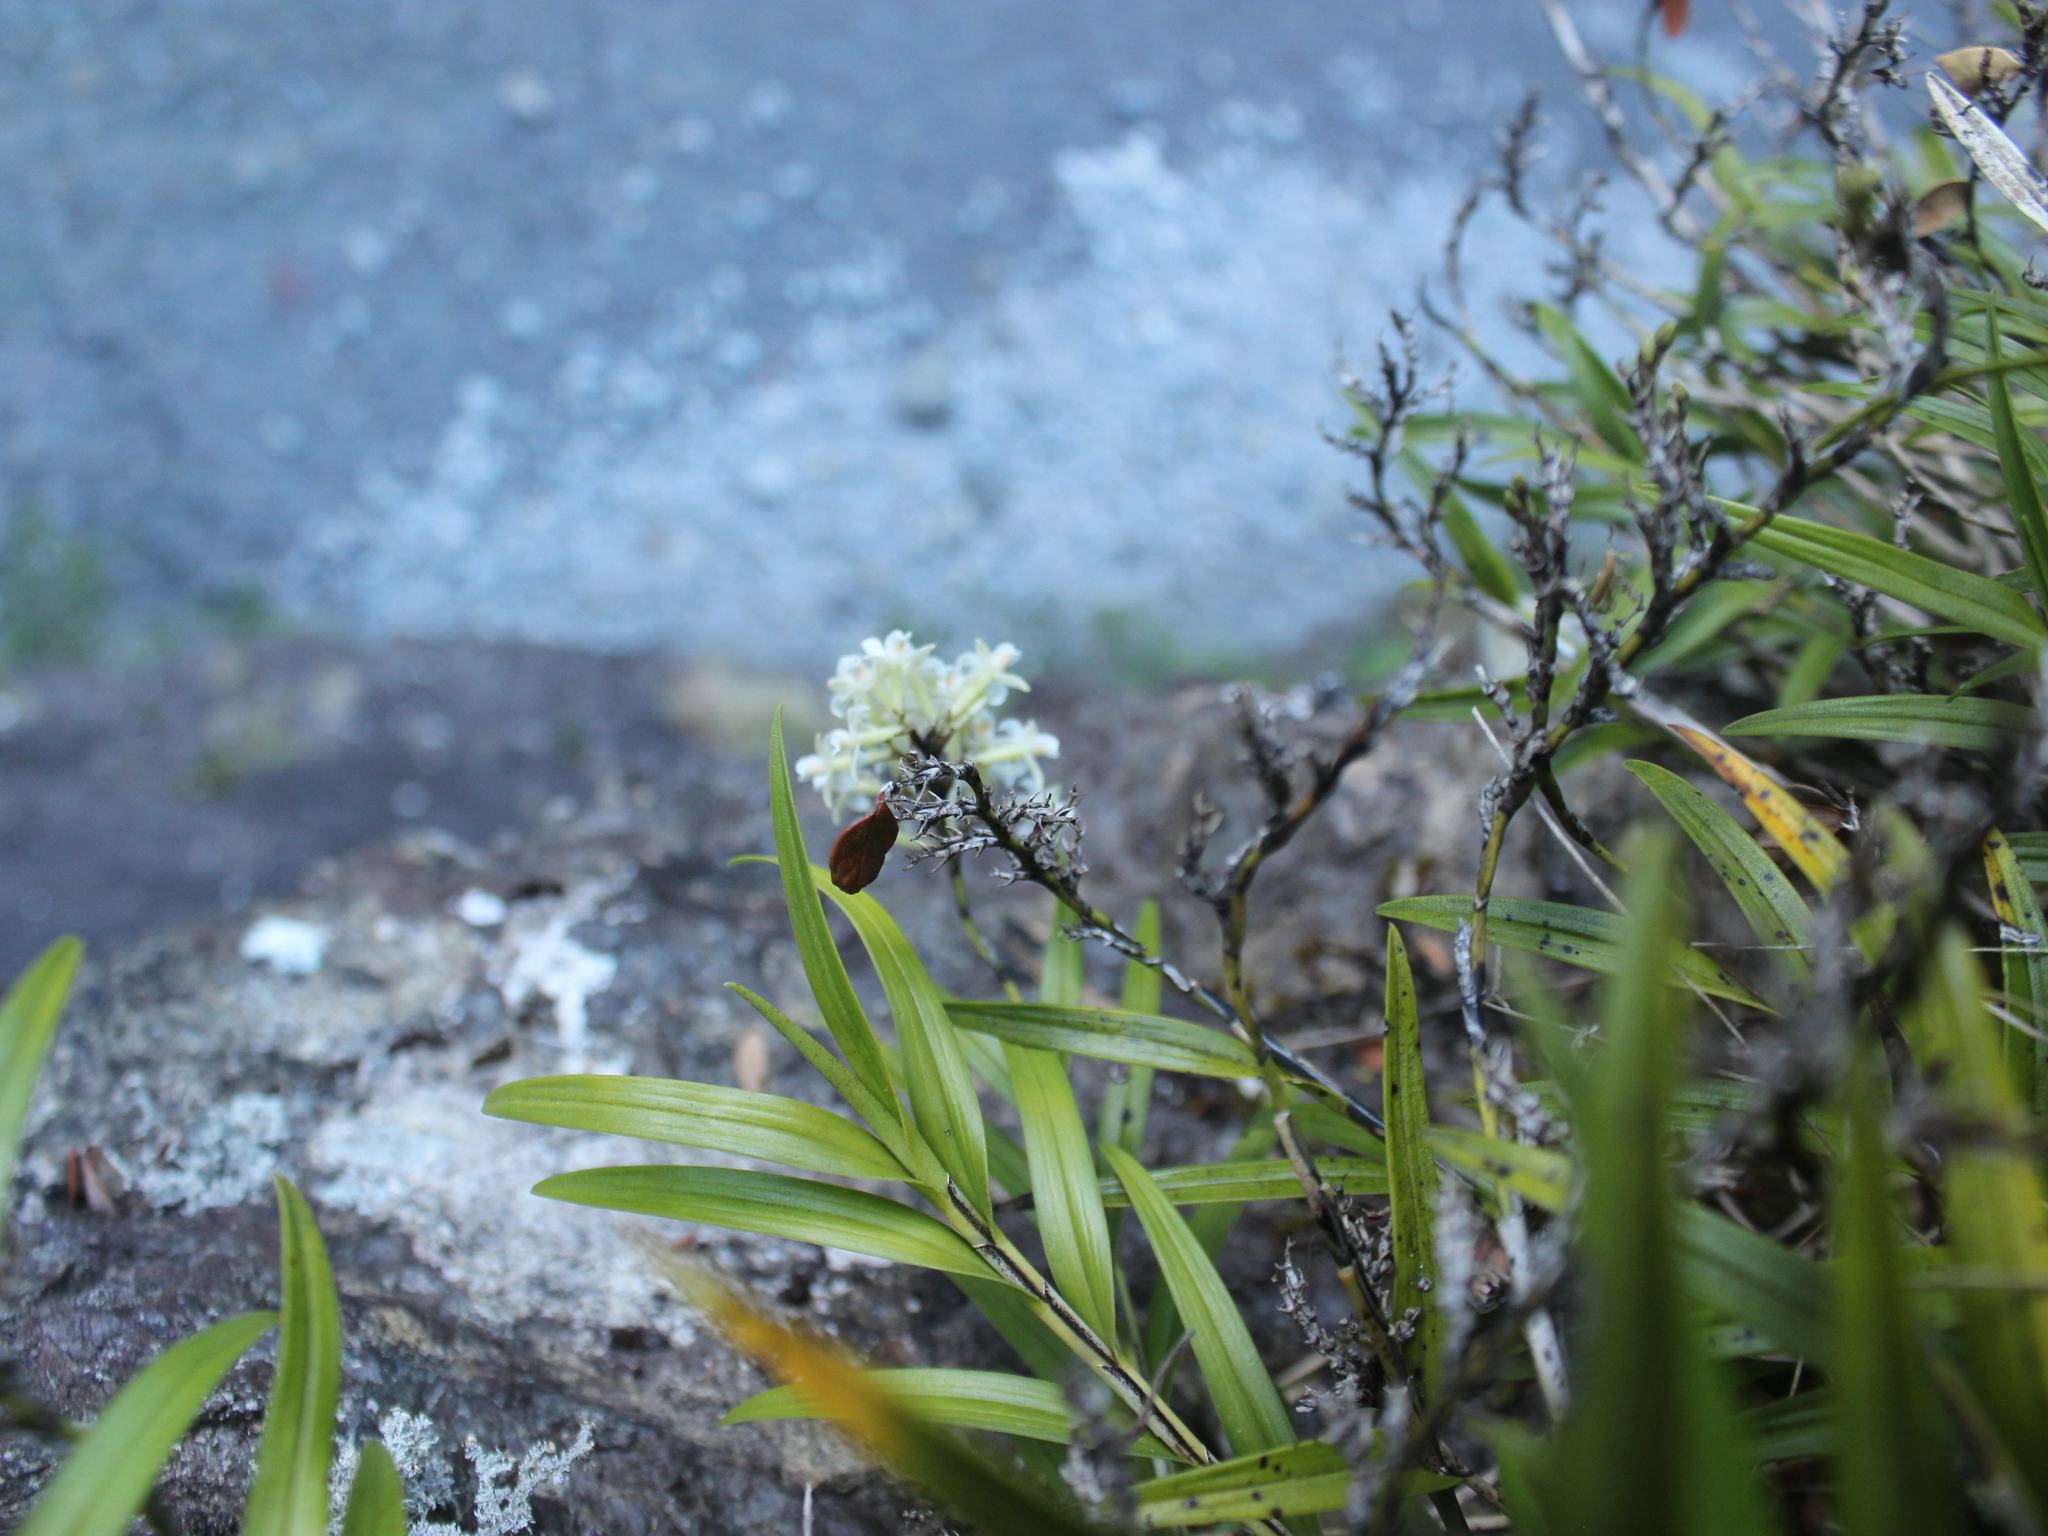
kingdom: Plantae
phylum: Tracheophyta
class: Liliopsida
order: Asparagales
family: Orchidaceae
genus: Earina
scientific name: Earina autumnalis
